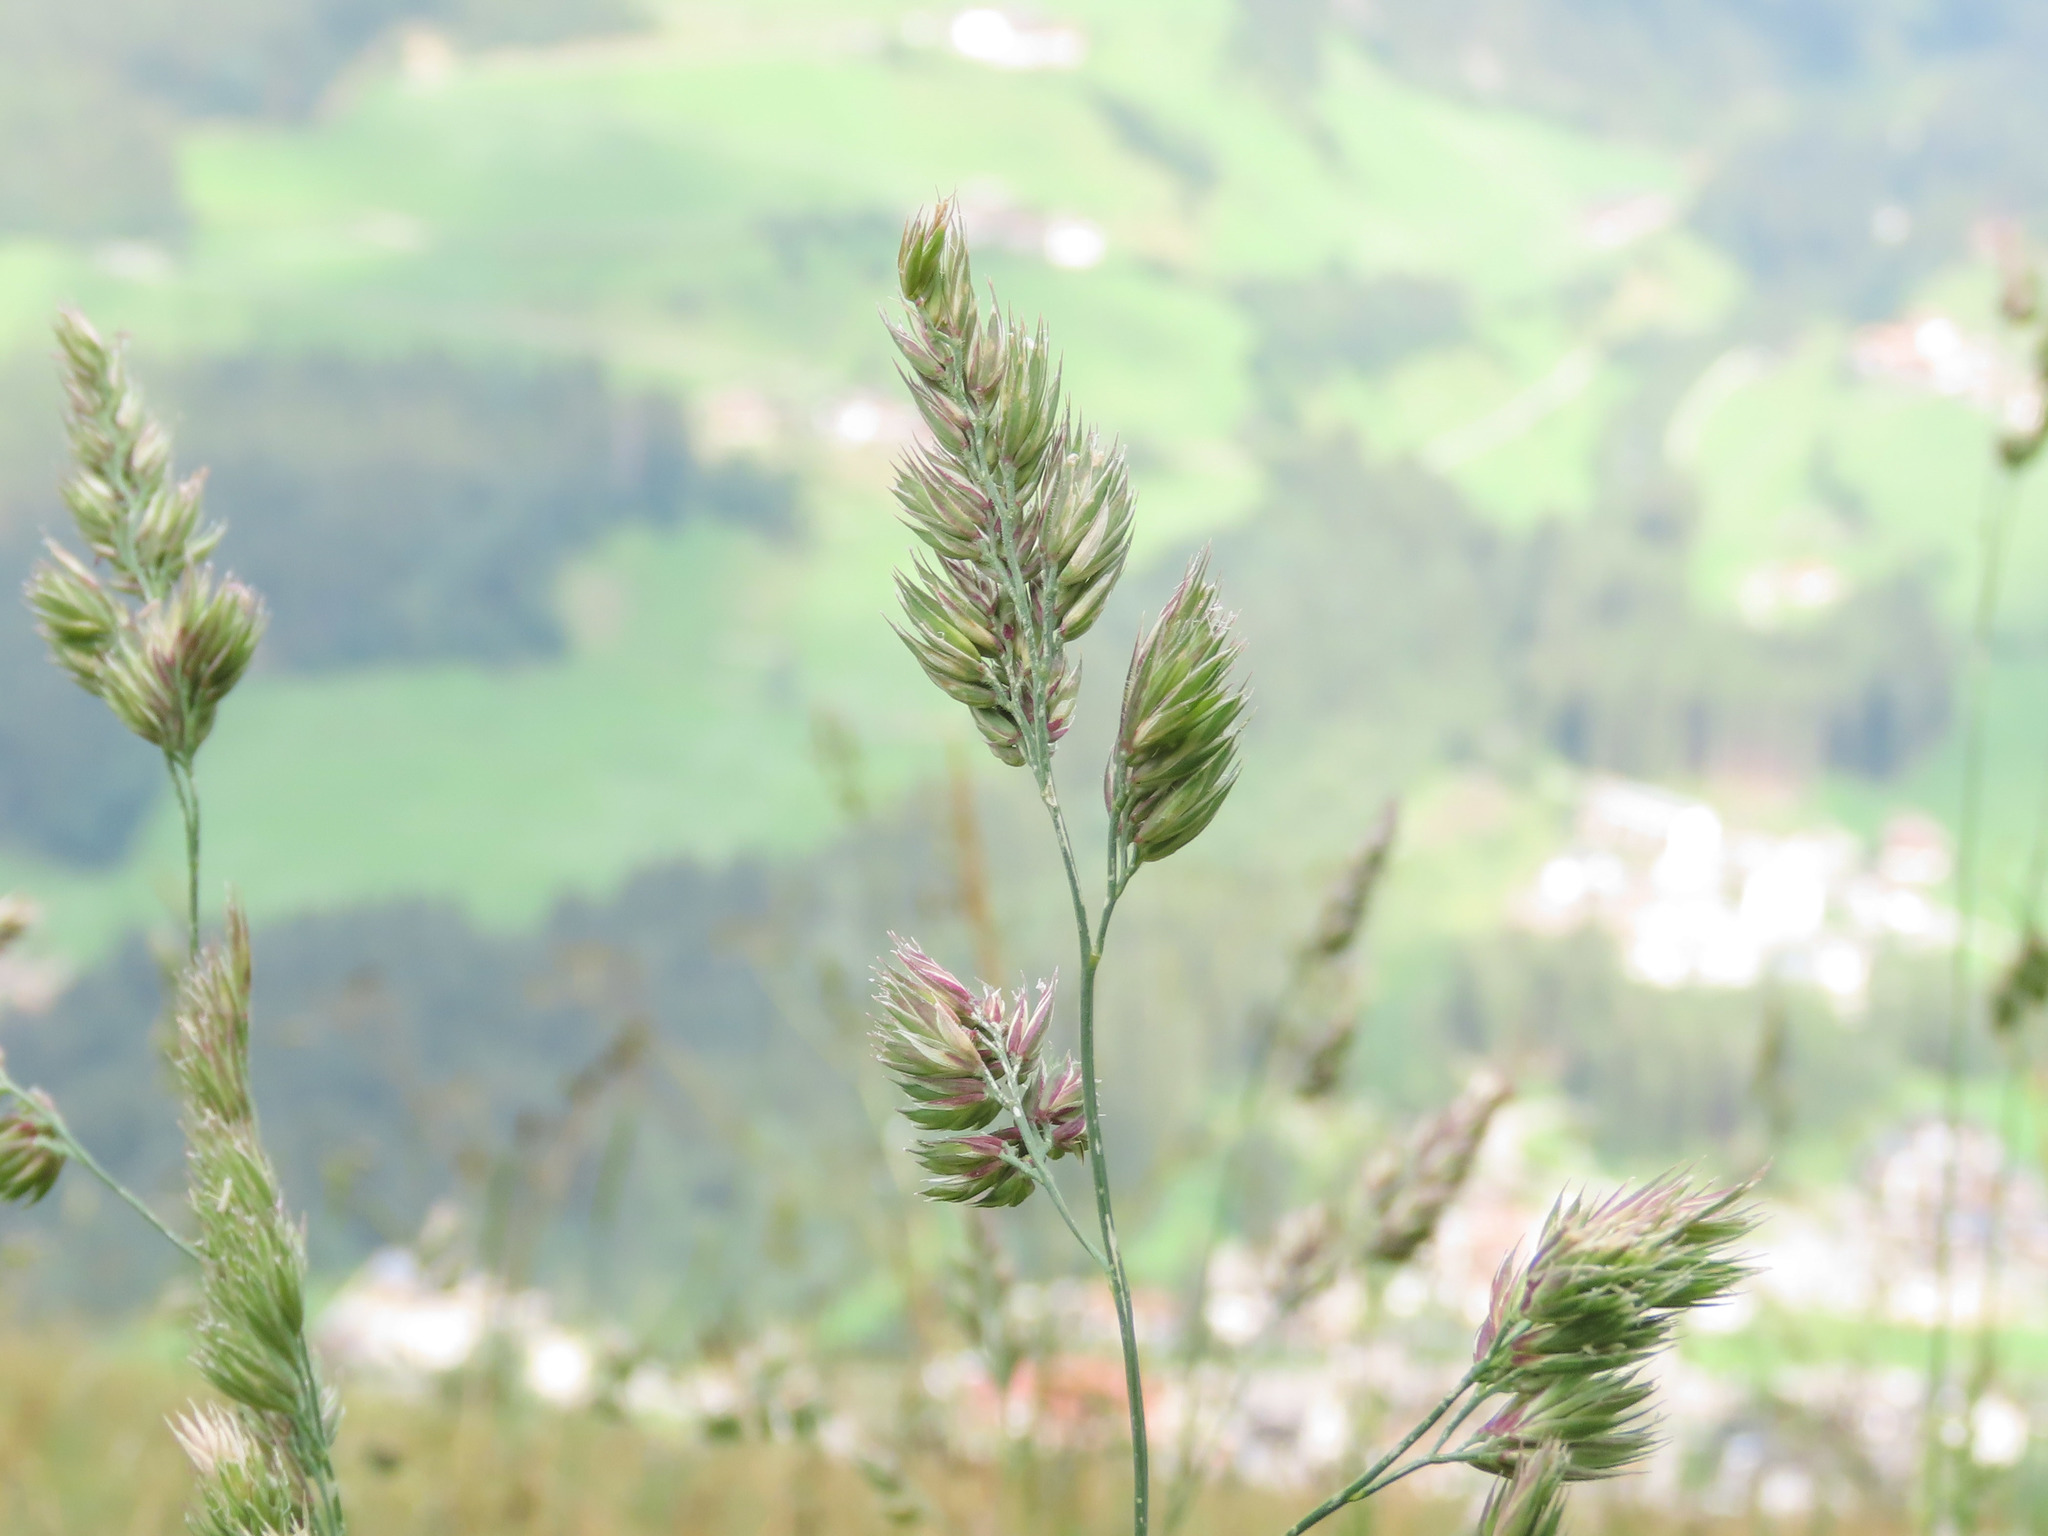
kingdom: Plantae
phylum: Tracheophyta
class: Liliopsida
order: Poales
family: Poaceae
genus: Dactylis
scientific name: Dactylis glomerata
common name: Orchardgrass
